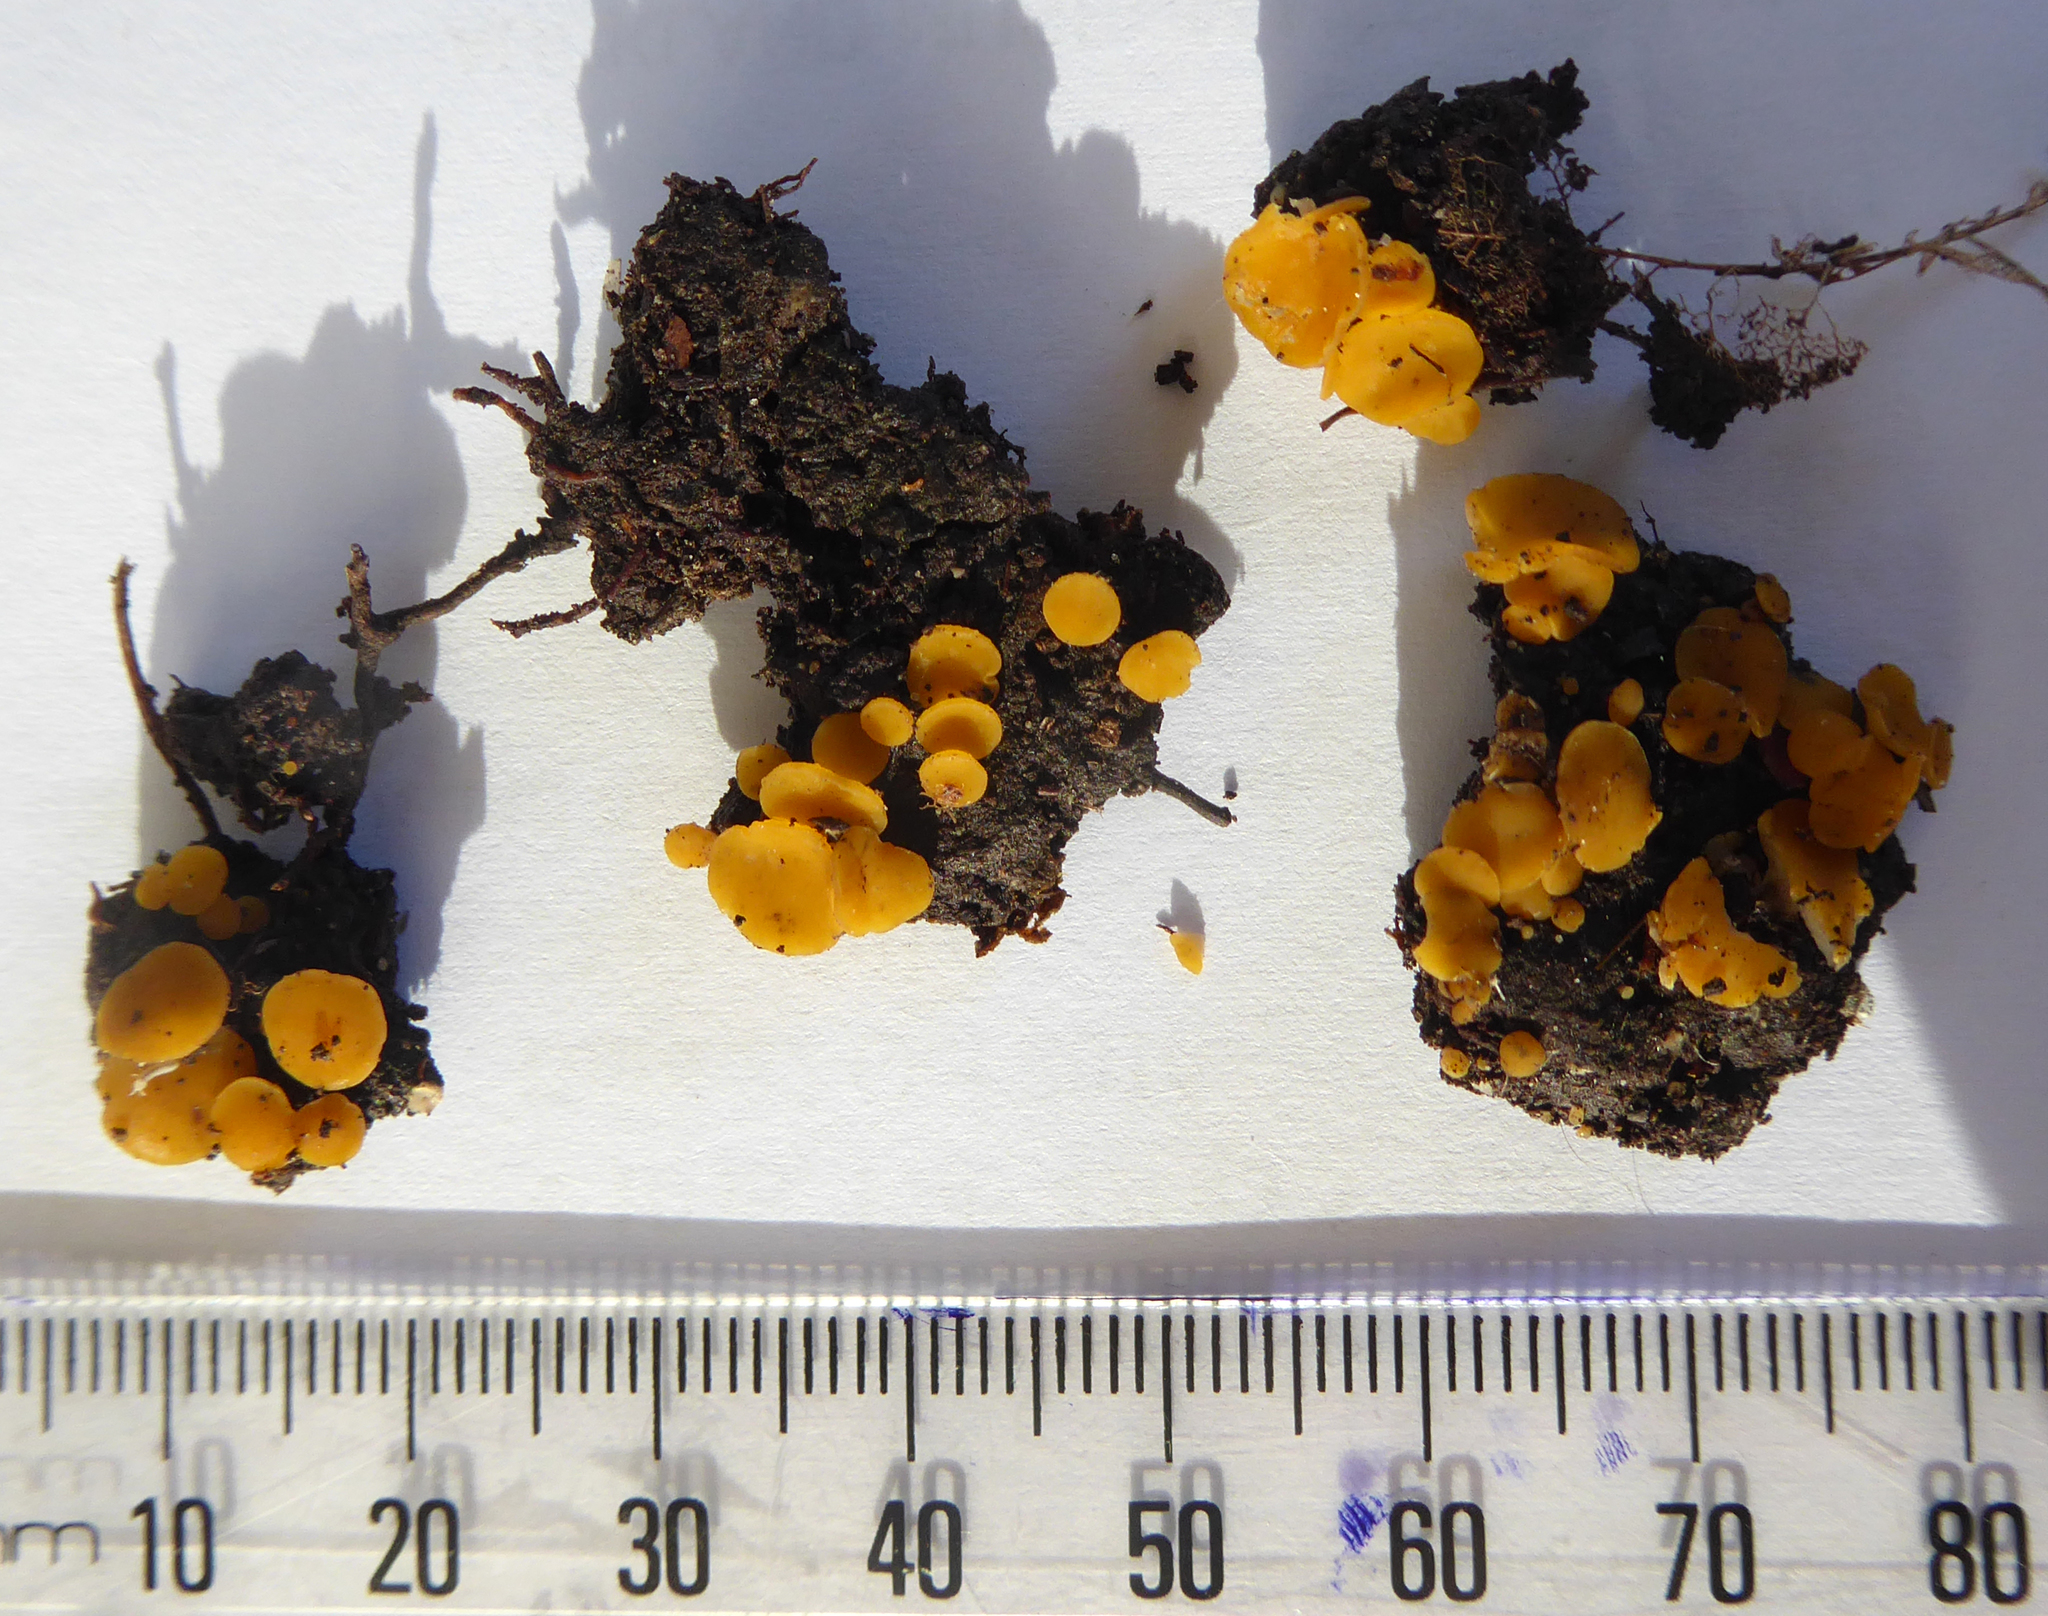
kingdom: Fungi
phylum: Ascomycota
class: Leotiomycetes
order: Helotiales
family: Helotiaceae
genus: Phaeohelotium
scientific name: Phaeohelotium undulatum
